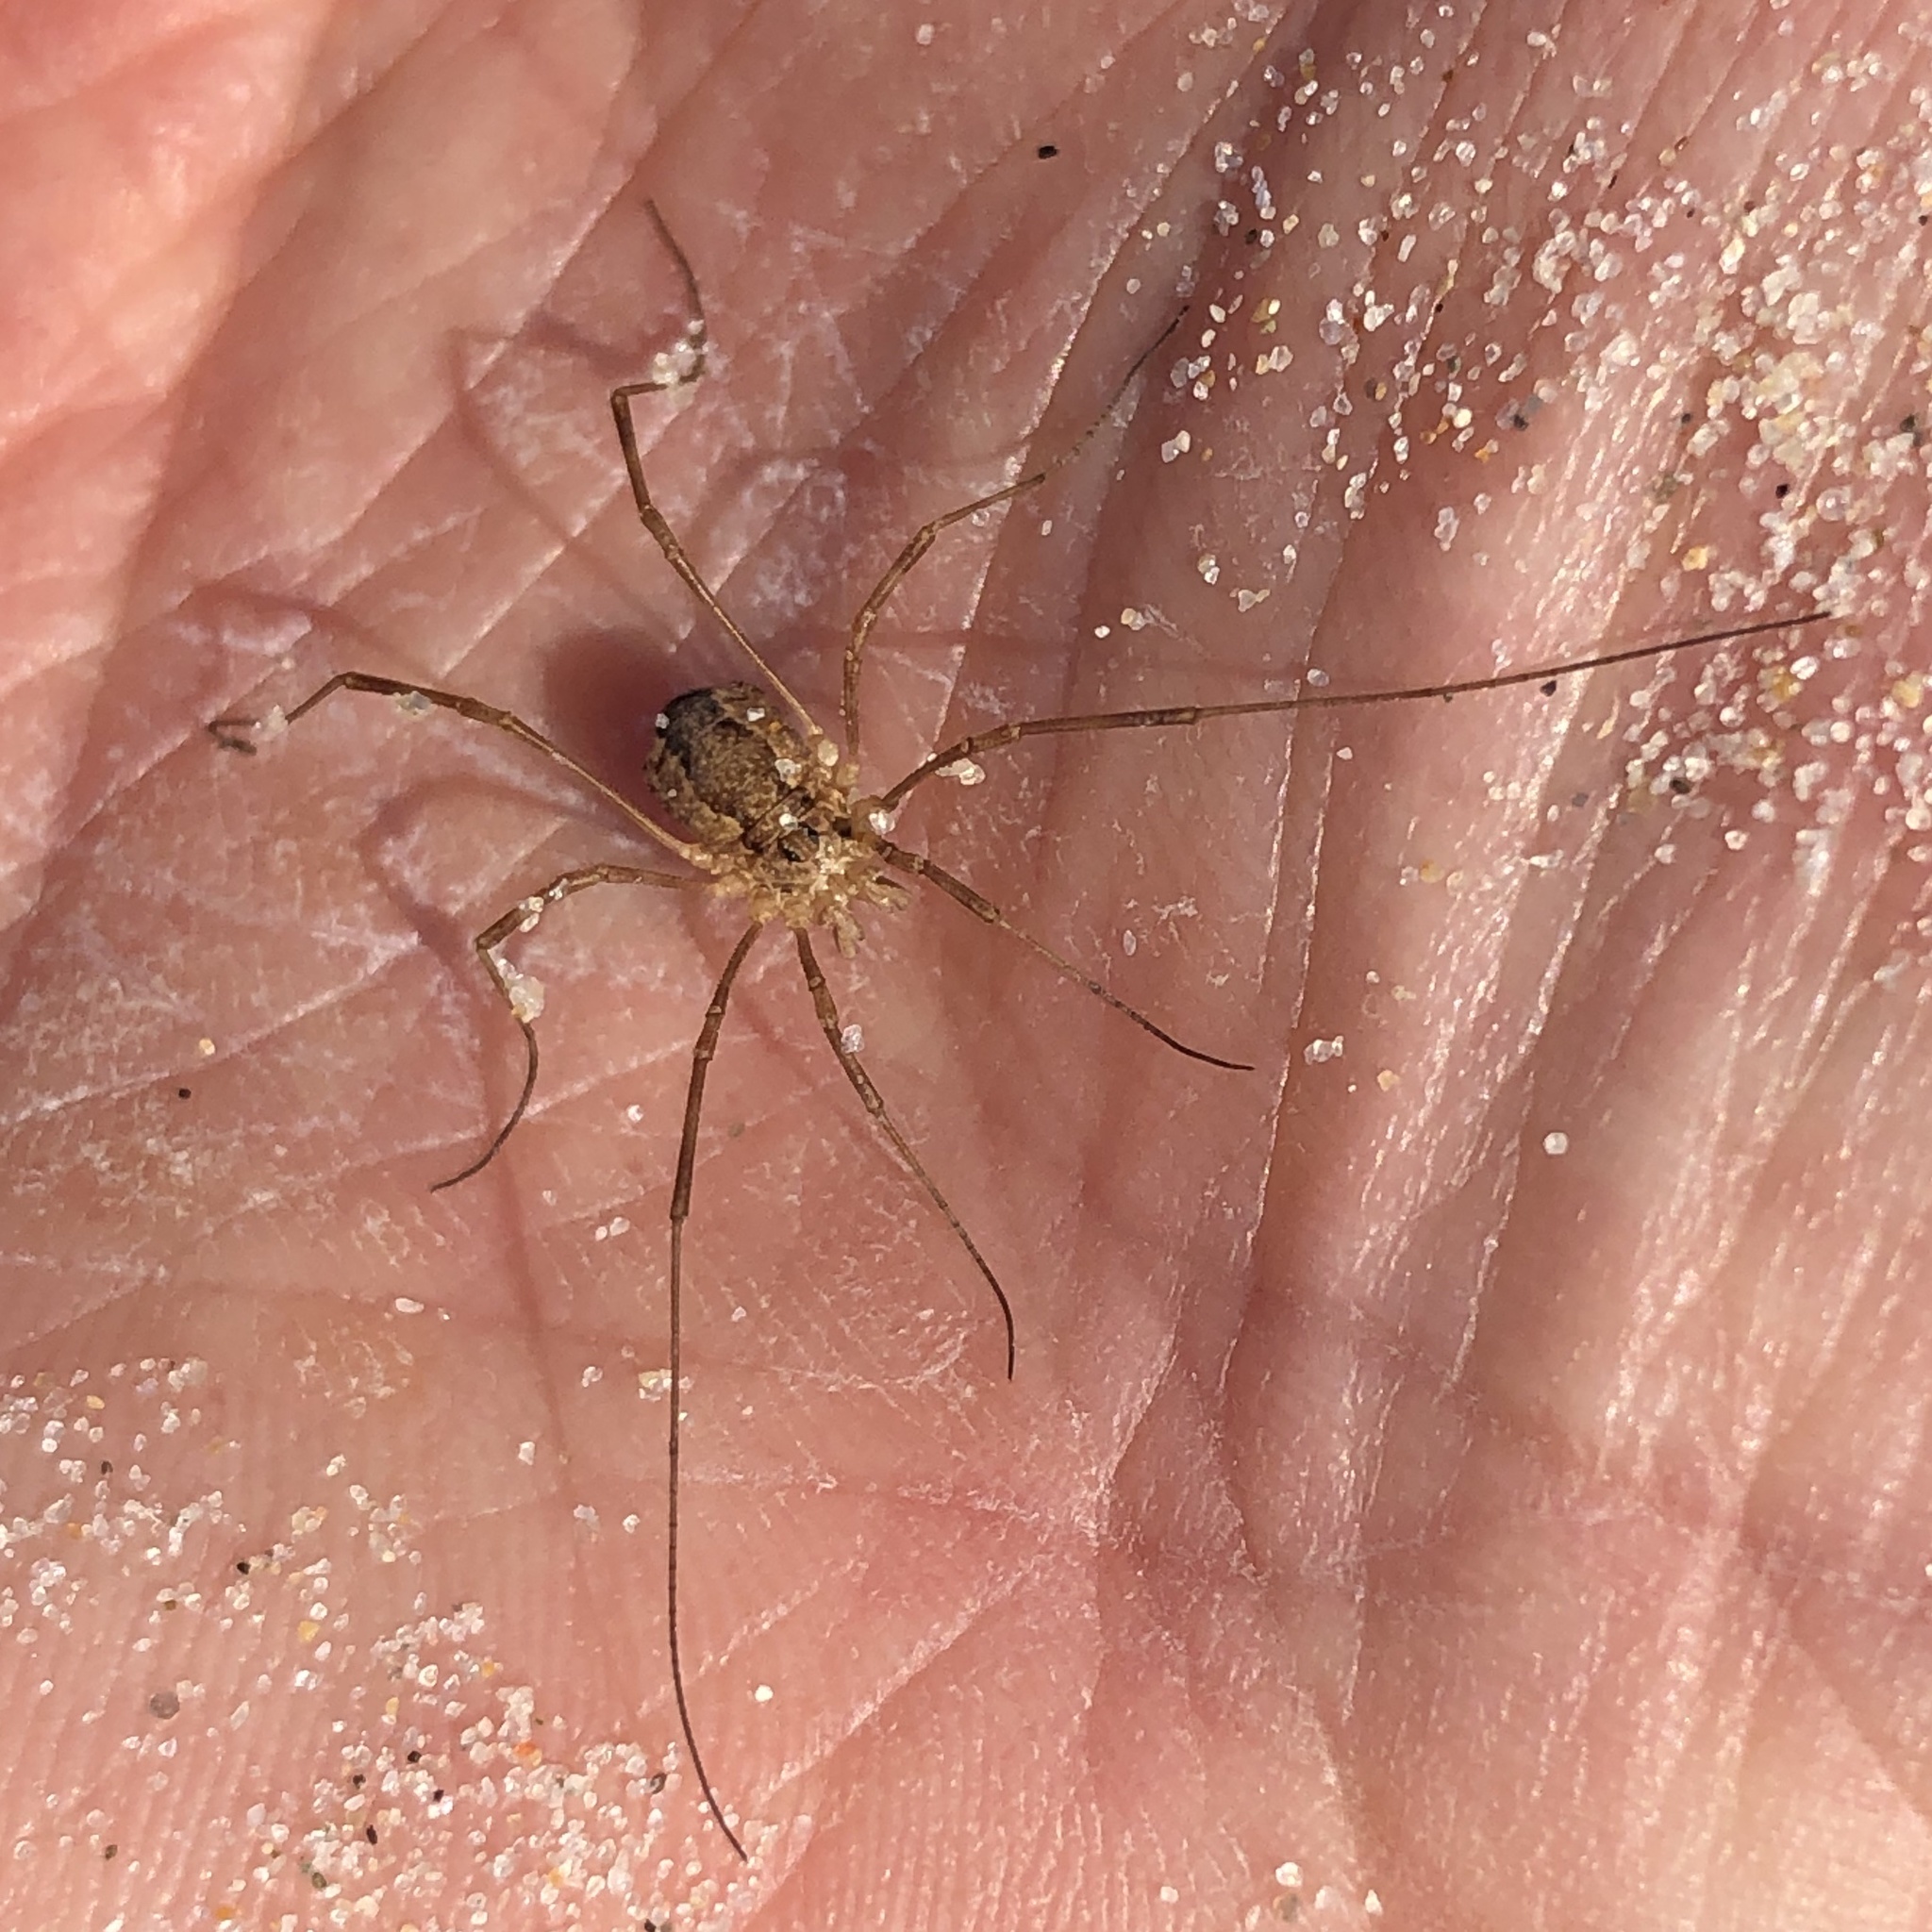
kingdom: Animalia
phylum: Arthropoda
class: Arachnida
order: Opiliones
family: Phalangiidae
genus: Rilaena
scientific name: Rilaena triangularis
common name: Spring harvestman
